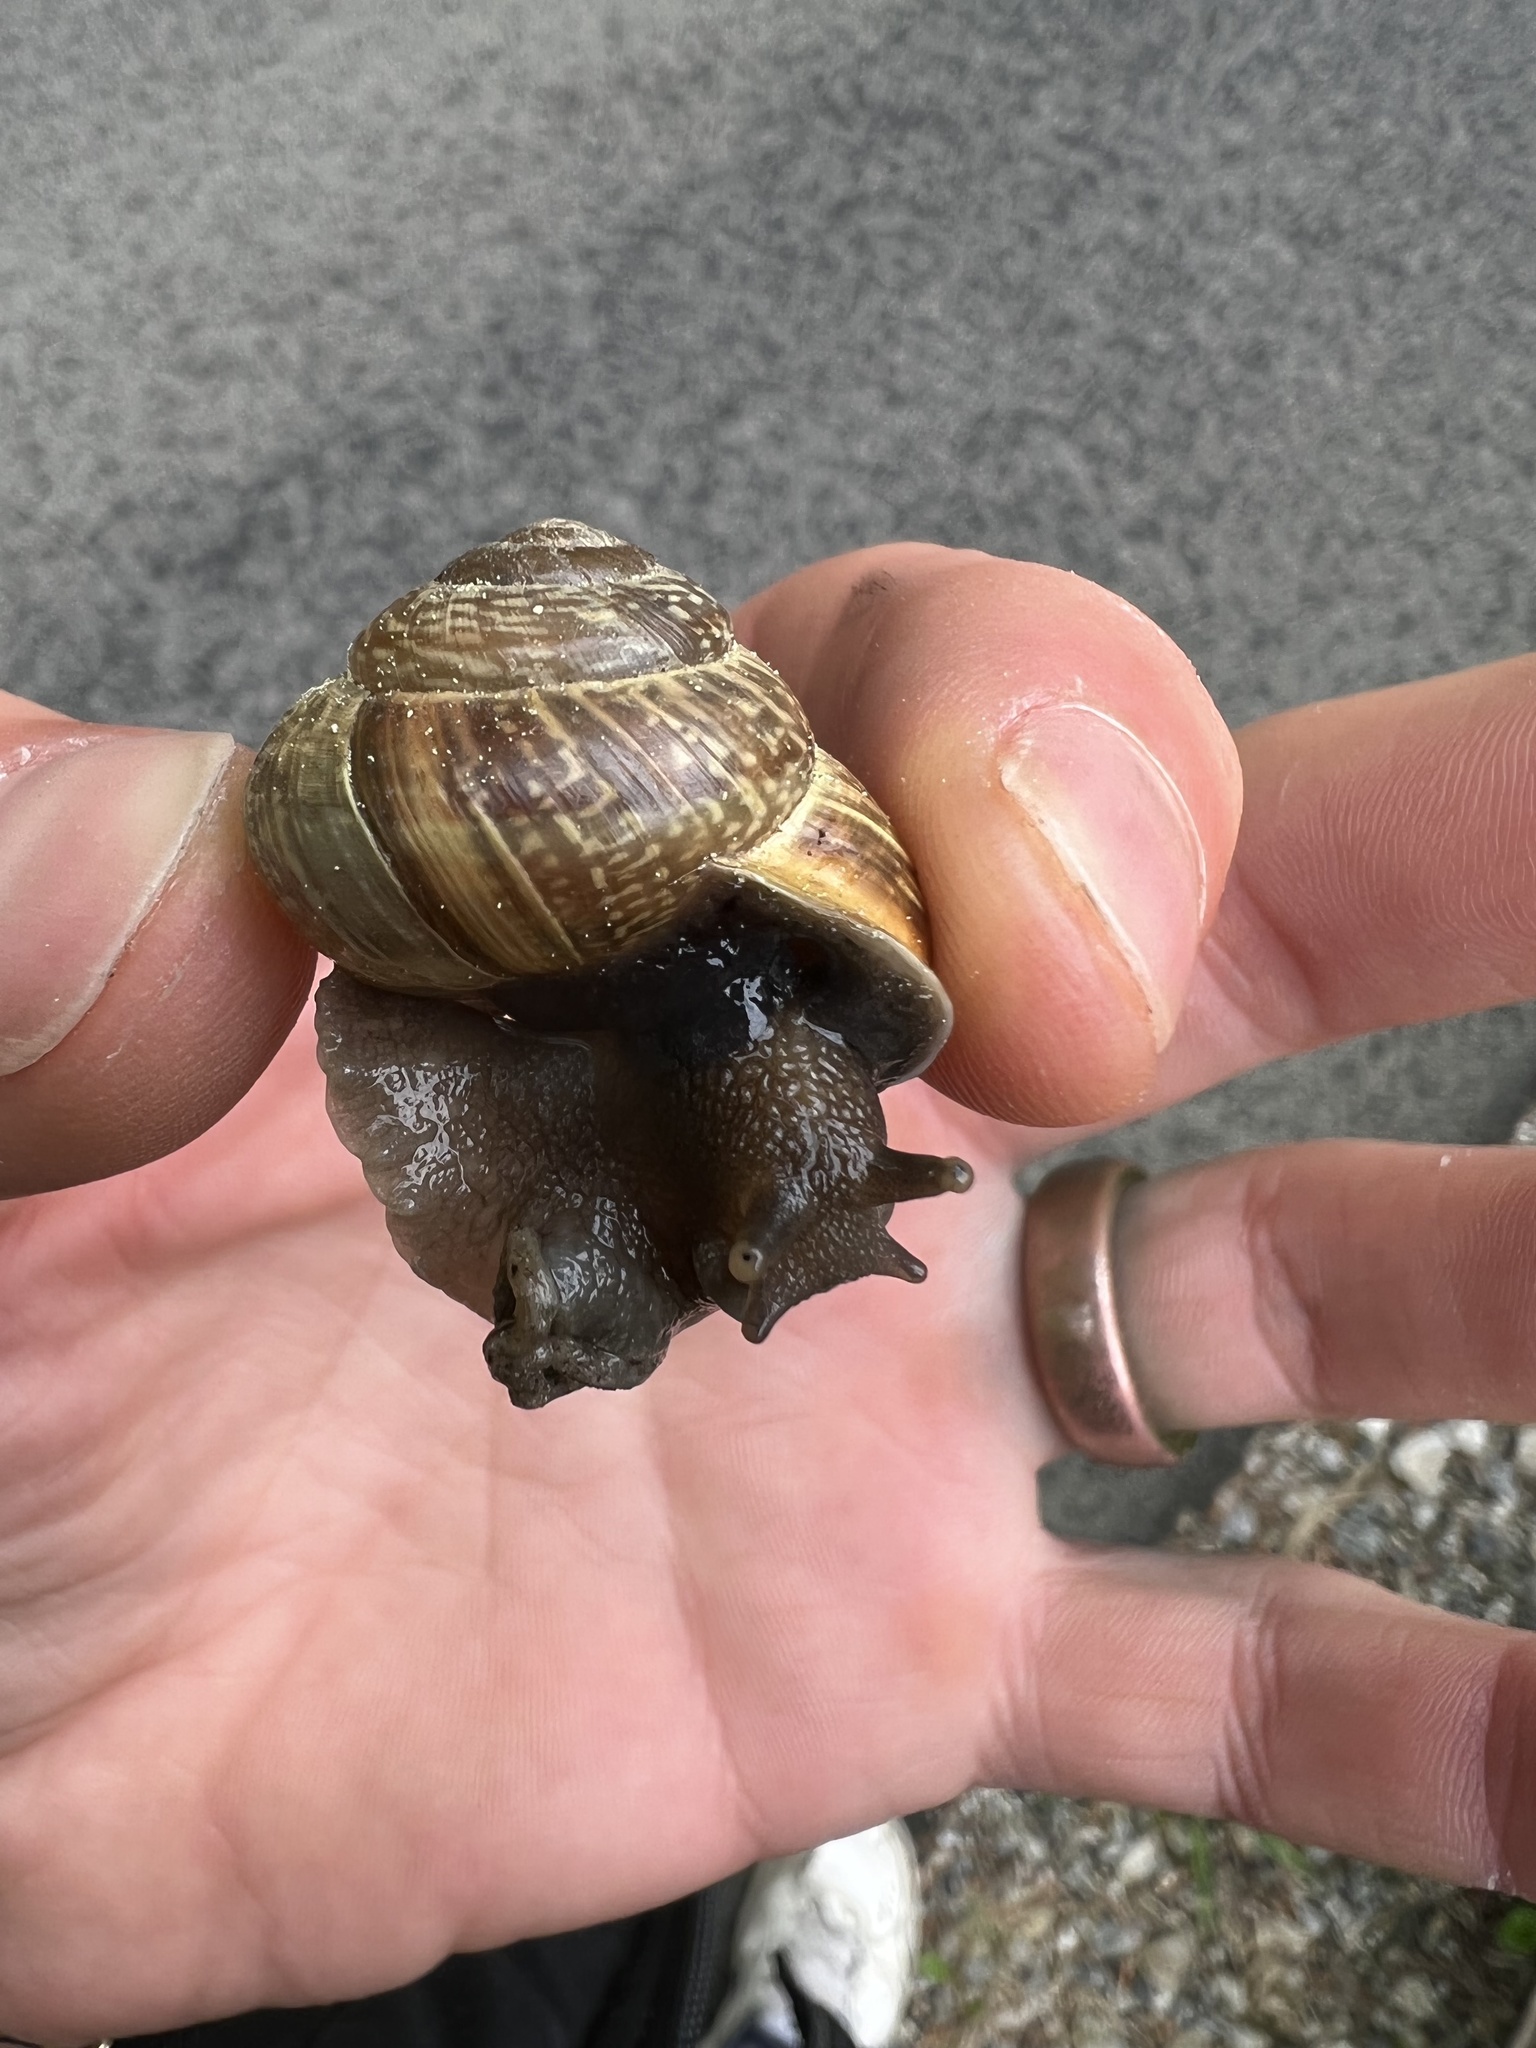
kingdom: Animalia
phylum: Mollusca
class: Gastropoda
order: Stylommatophora
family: Helicidae
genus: Arianta
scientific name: Arianta arbustorum
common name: Copse snail
